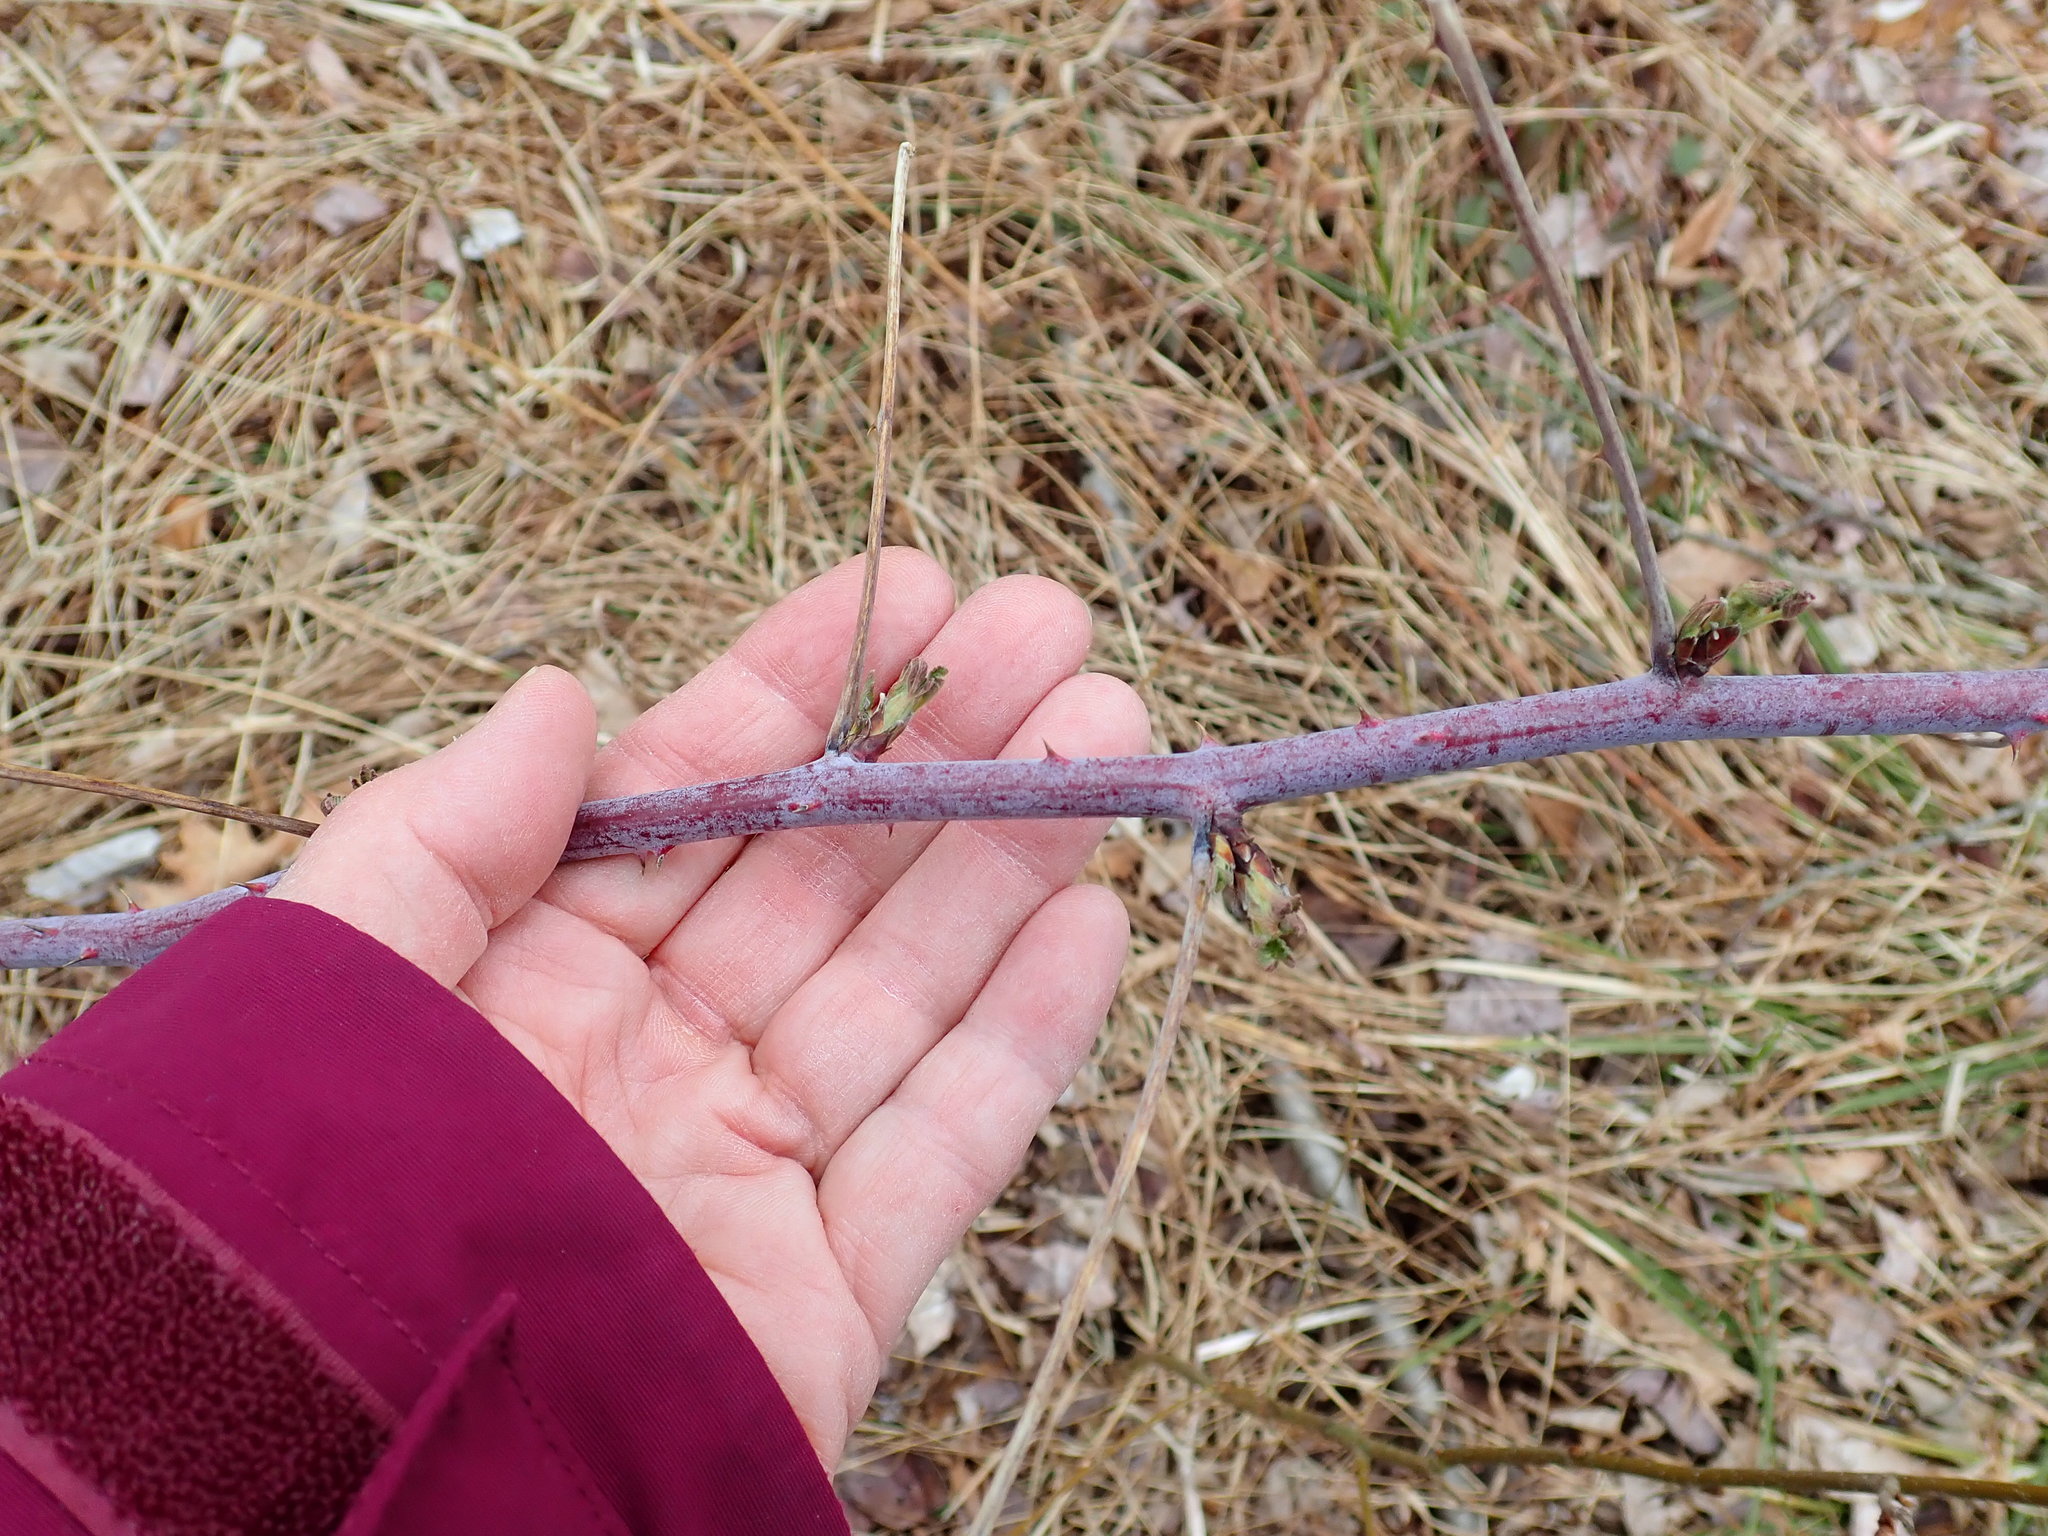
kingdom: Plantae
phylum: Tracheophyta
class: Magnoliopsida
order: Rosales
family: Rosaceae
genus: Rubus
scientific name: Rubus occidentalis
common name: Black raspberry
